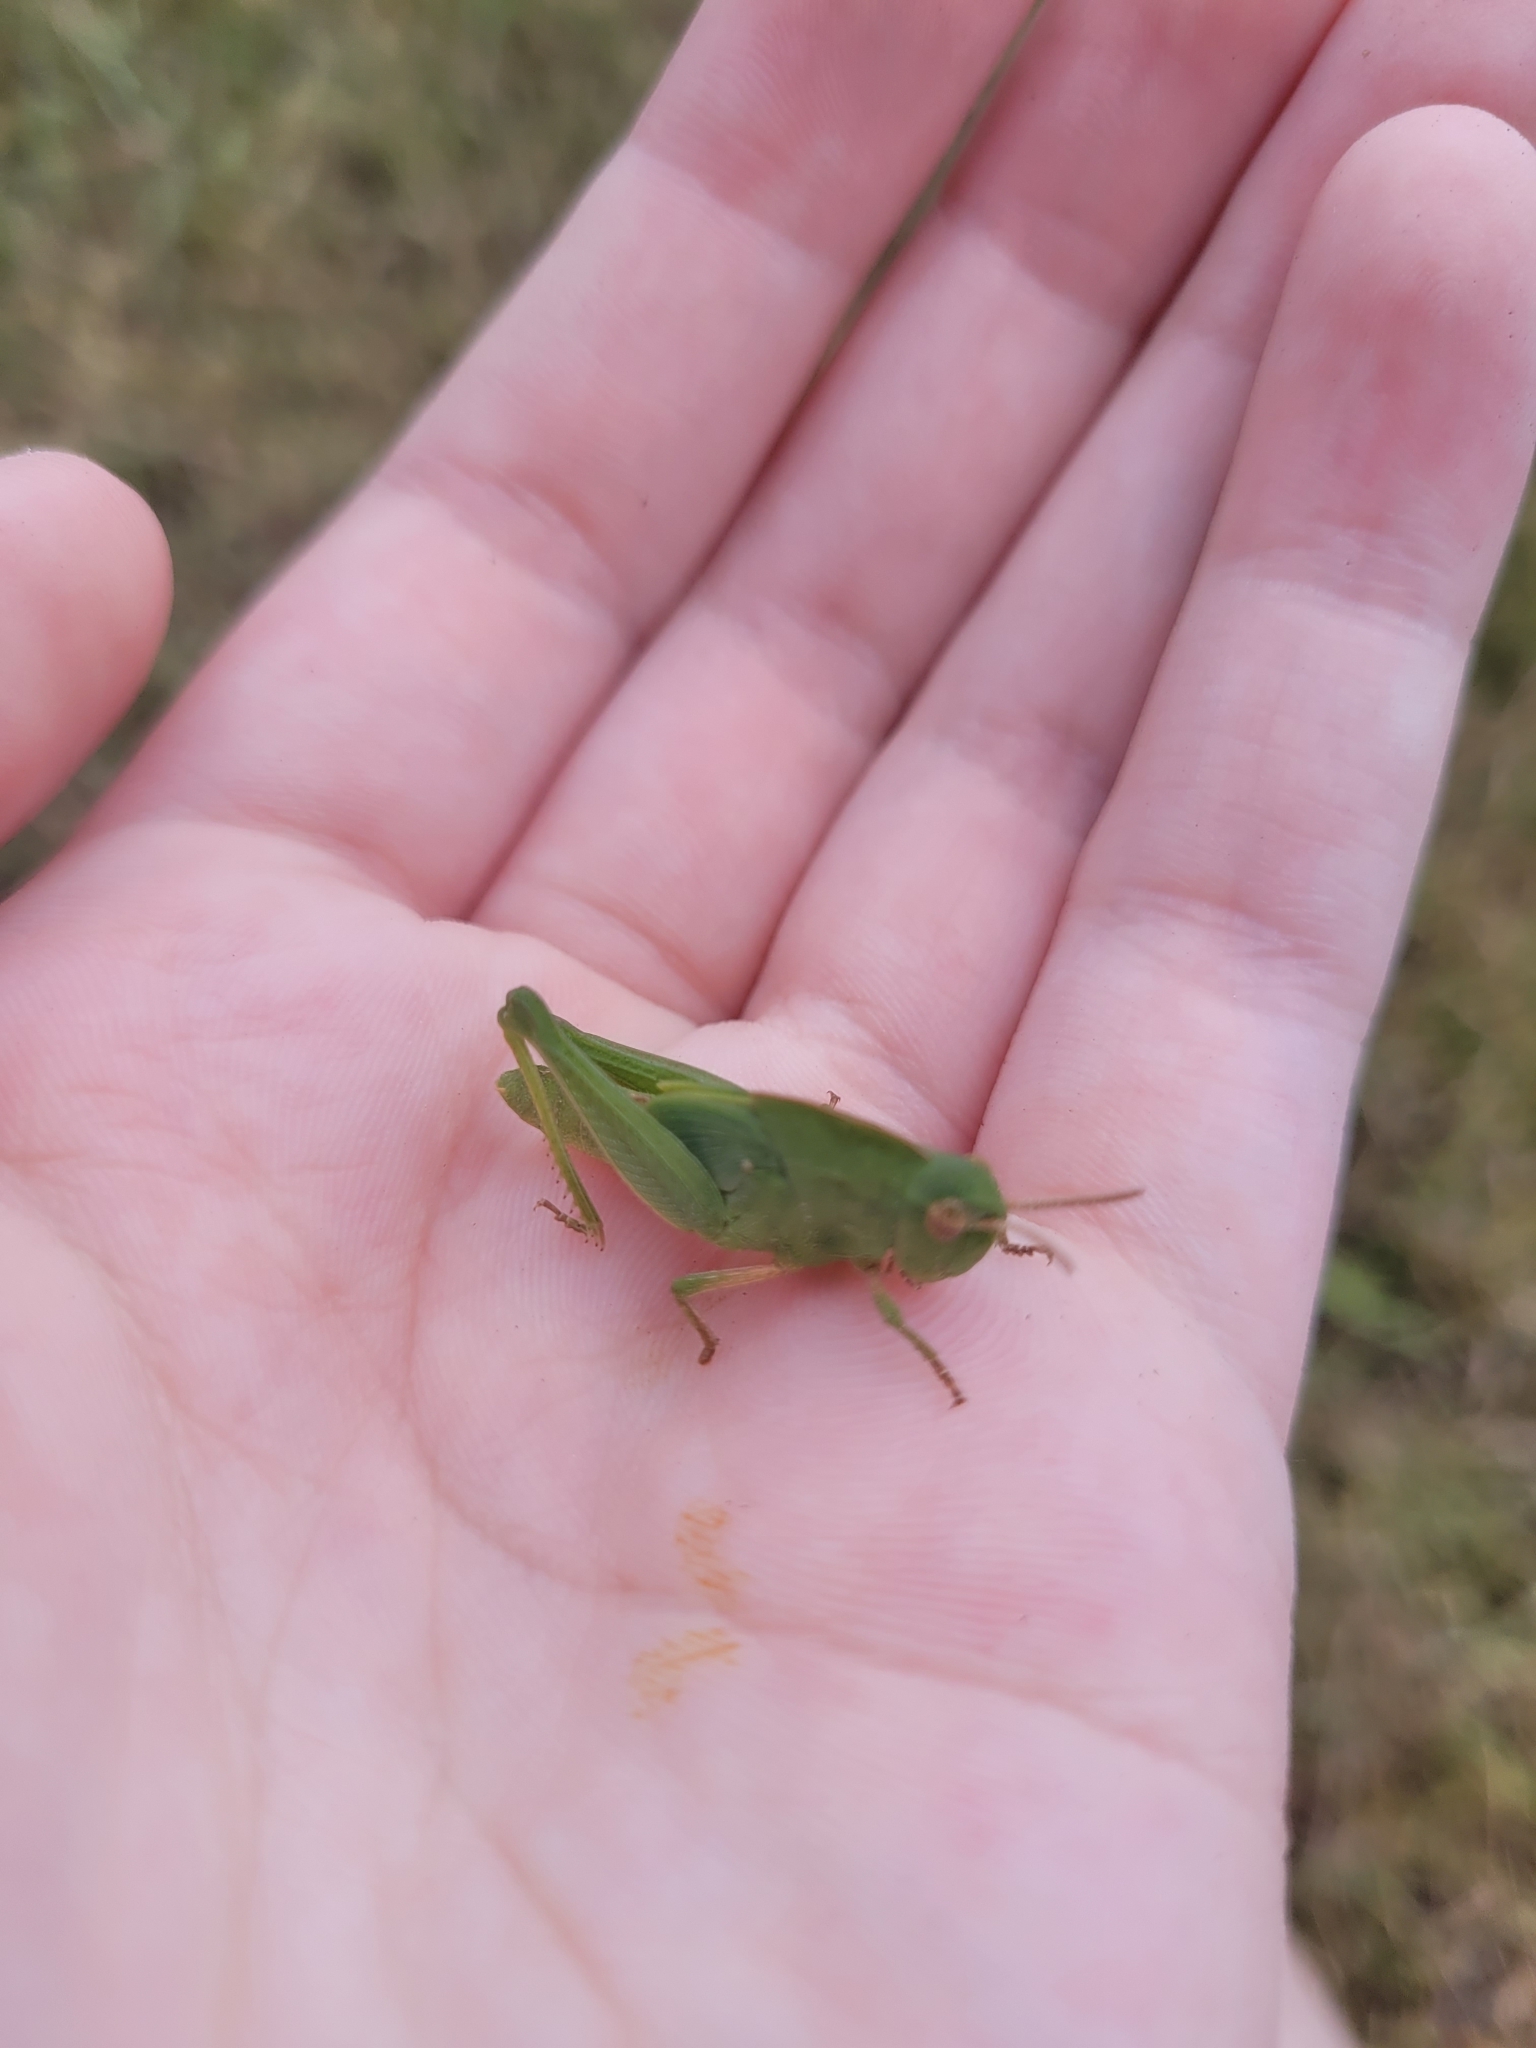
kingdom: Animalia
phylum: Arthropoda
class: Insecta
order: Orthoptera
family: Acrididae
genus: Chortophaga
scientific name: Chortophaga viridifasciata
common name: Green-striped grasshopper
